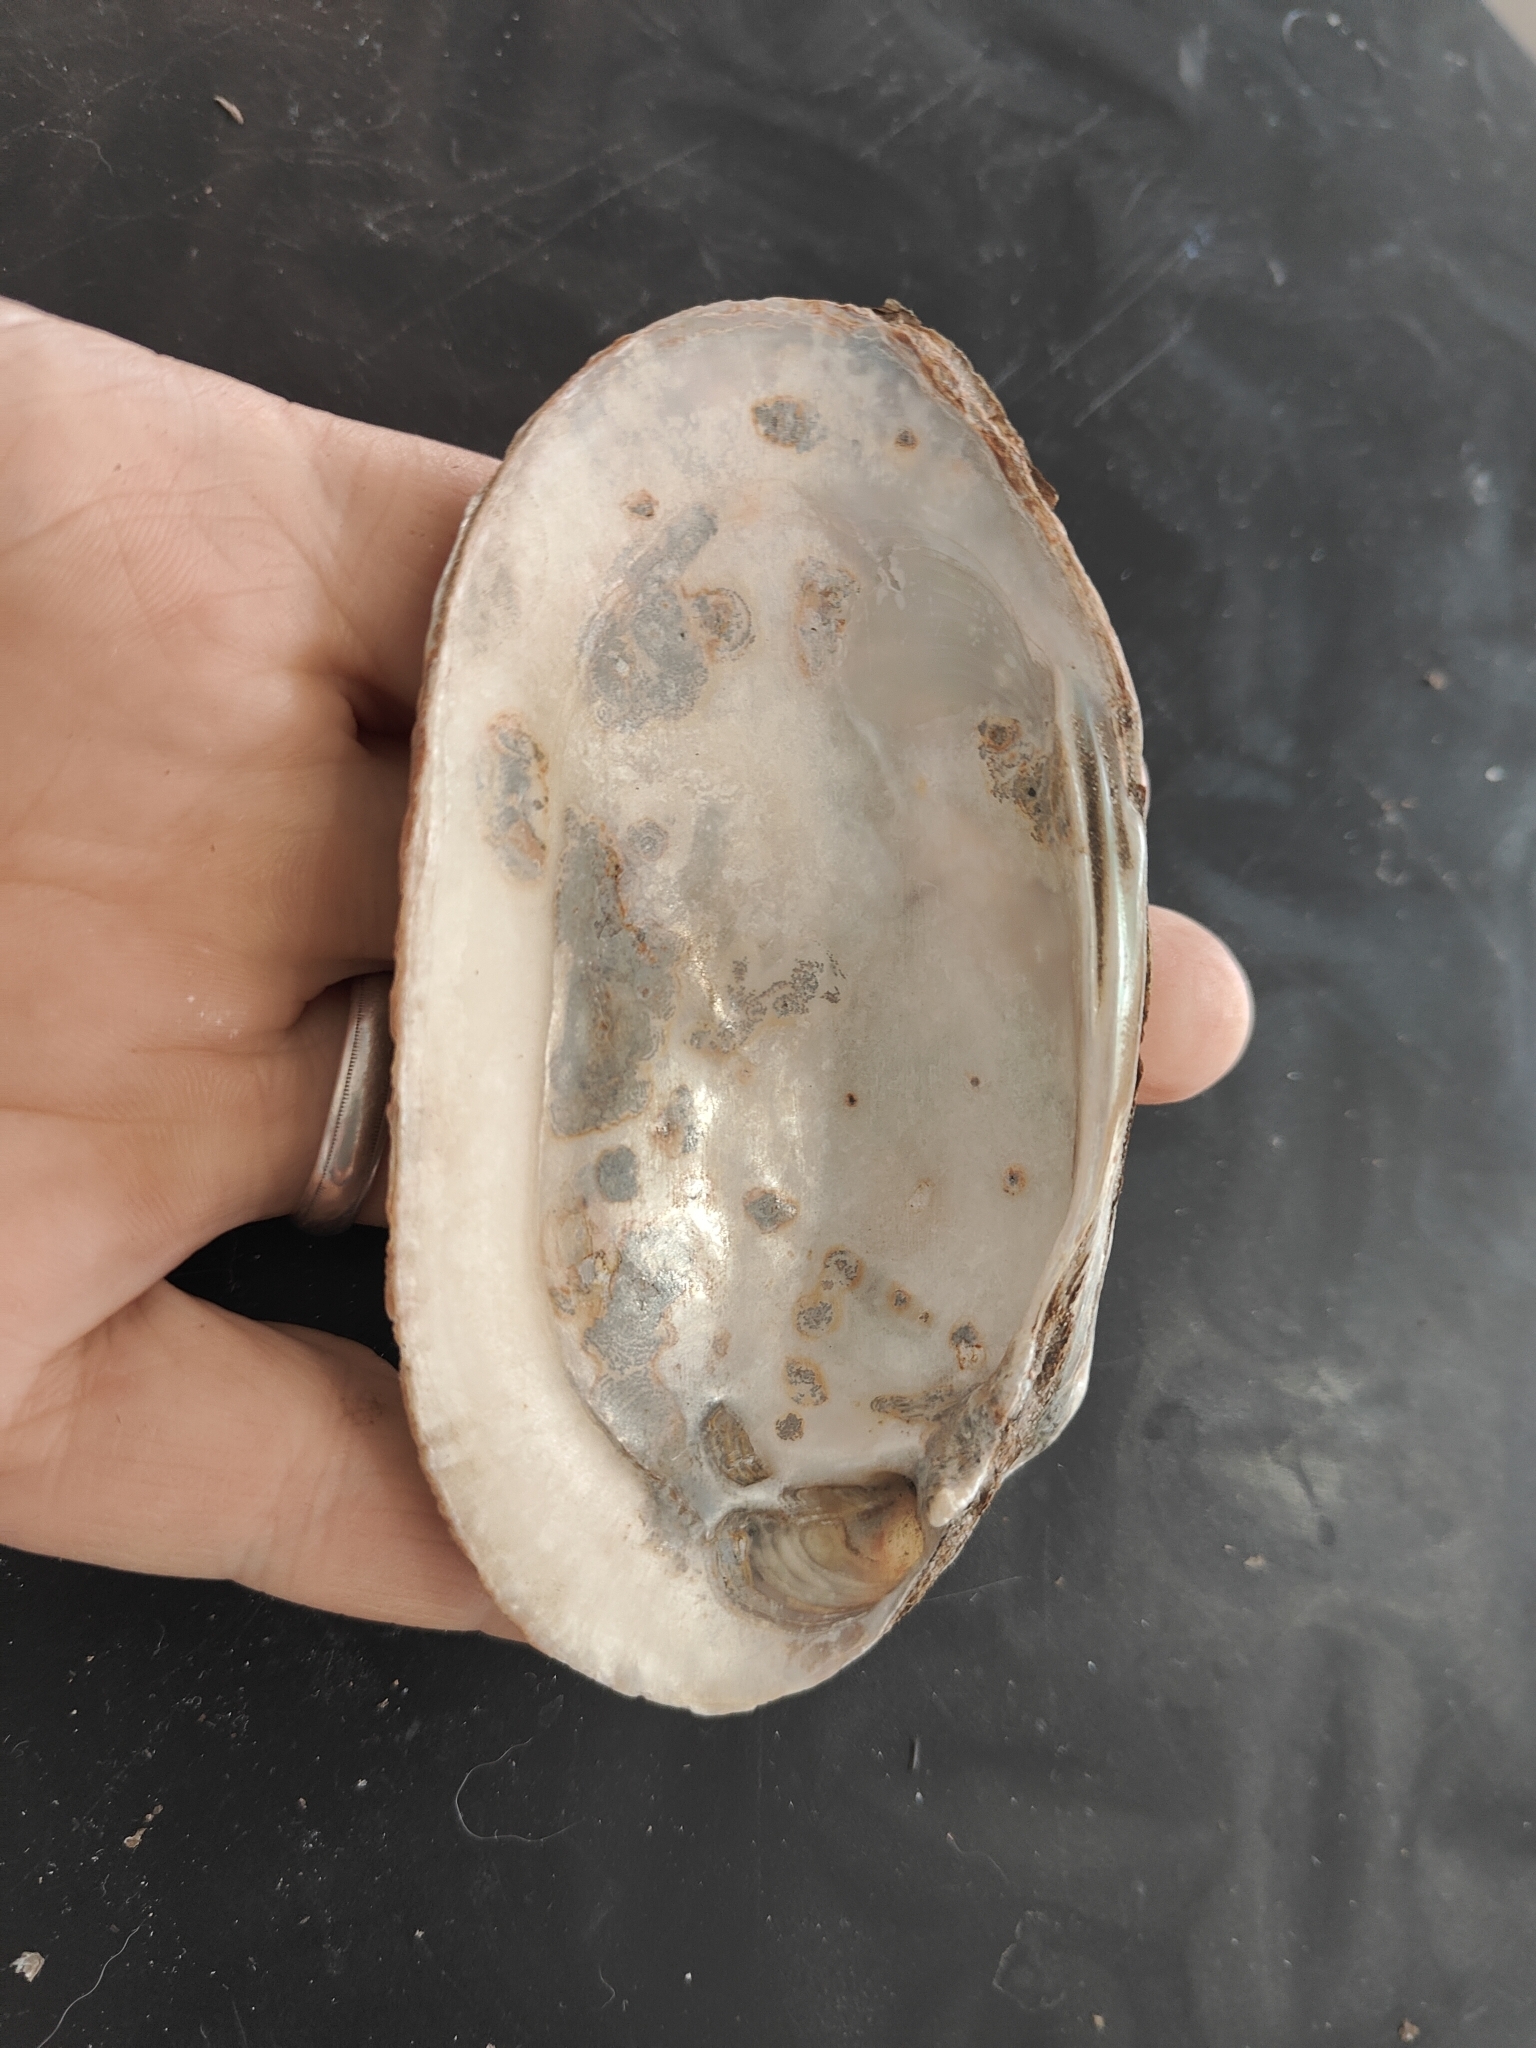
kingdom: Animalia
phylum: Mollusca
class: Bivalvia
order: Unionida
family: Unionidae
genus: Lampsilis
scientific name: Lampsilis siliquoidea
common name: Fatmucket
